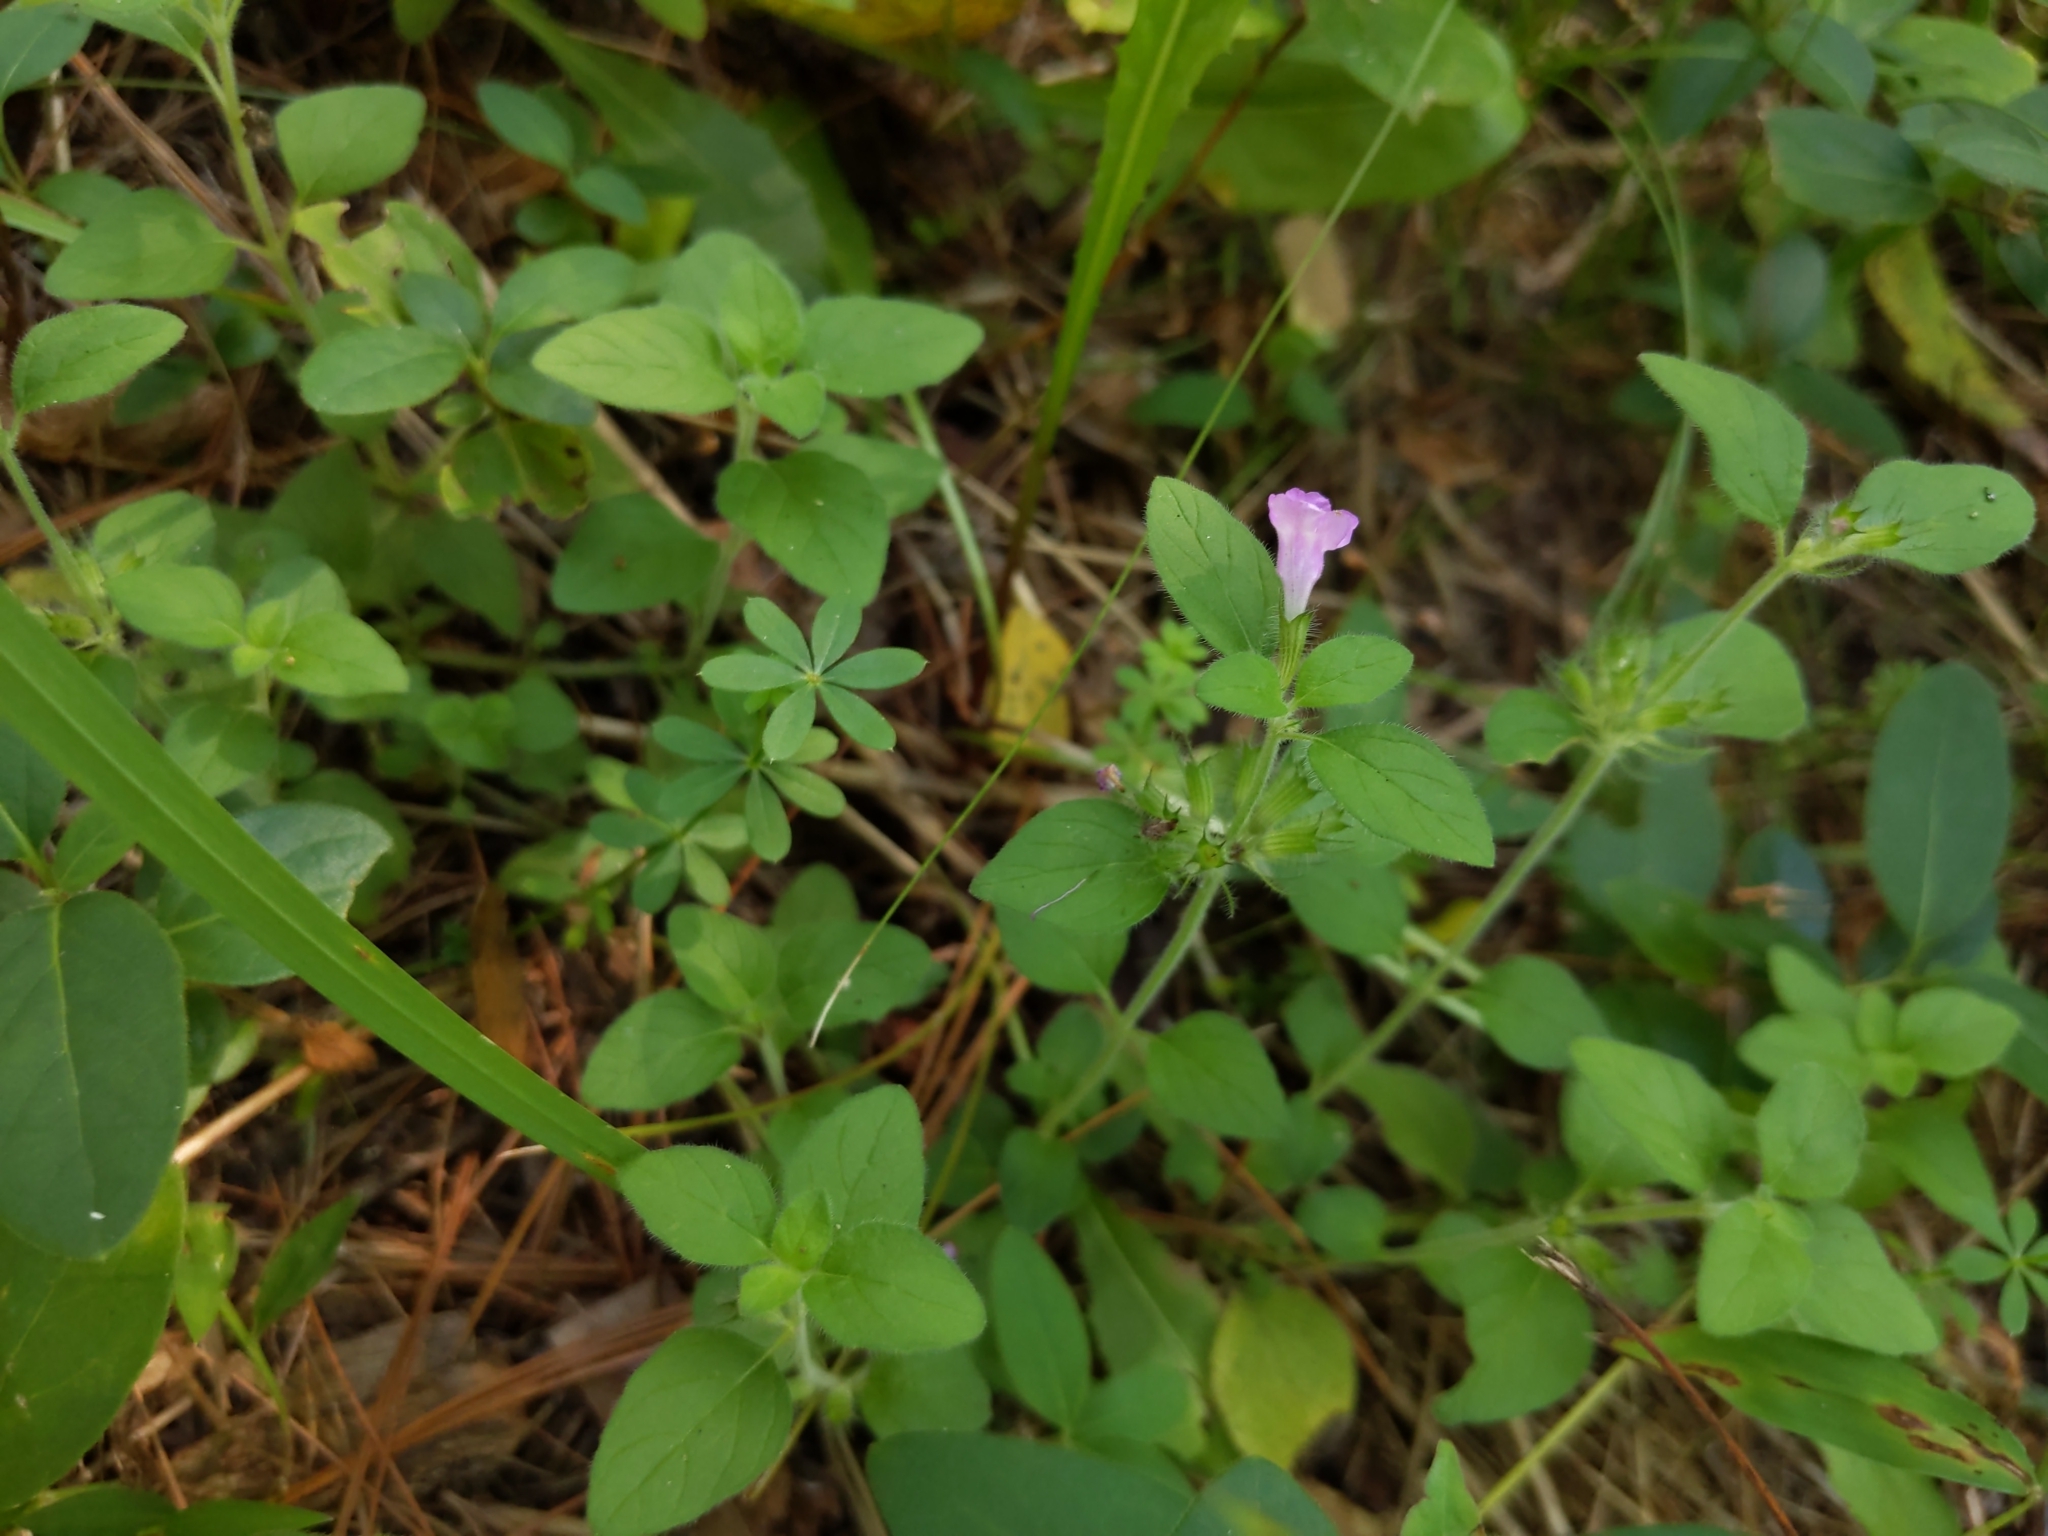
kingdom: Plantae
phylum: Tracheophyta
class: Magnoliopsida
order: Lamiales
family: Lamiaceae
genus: Clinopodium
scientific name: Clinopodium vulgare
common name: Wild basil
